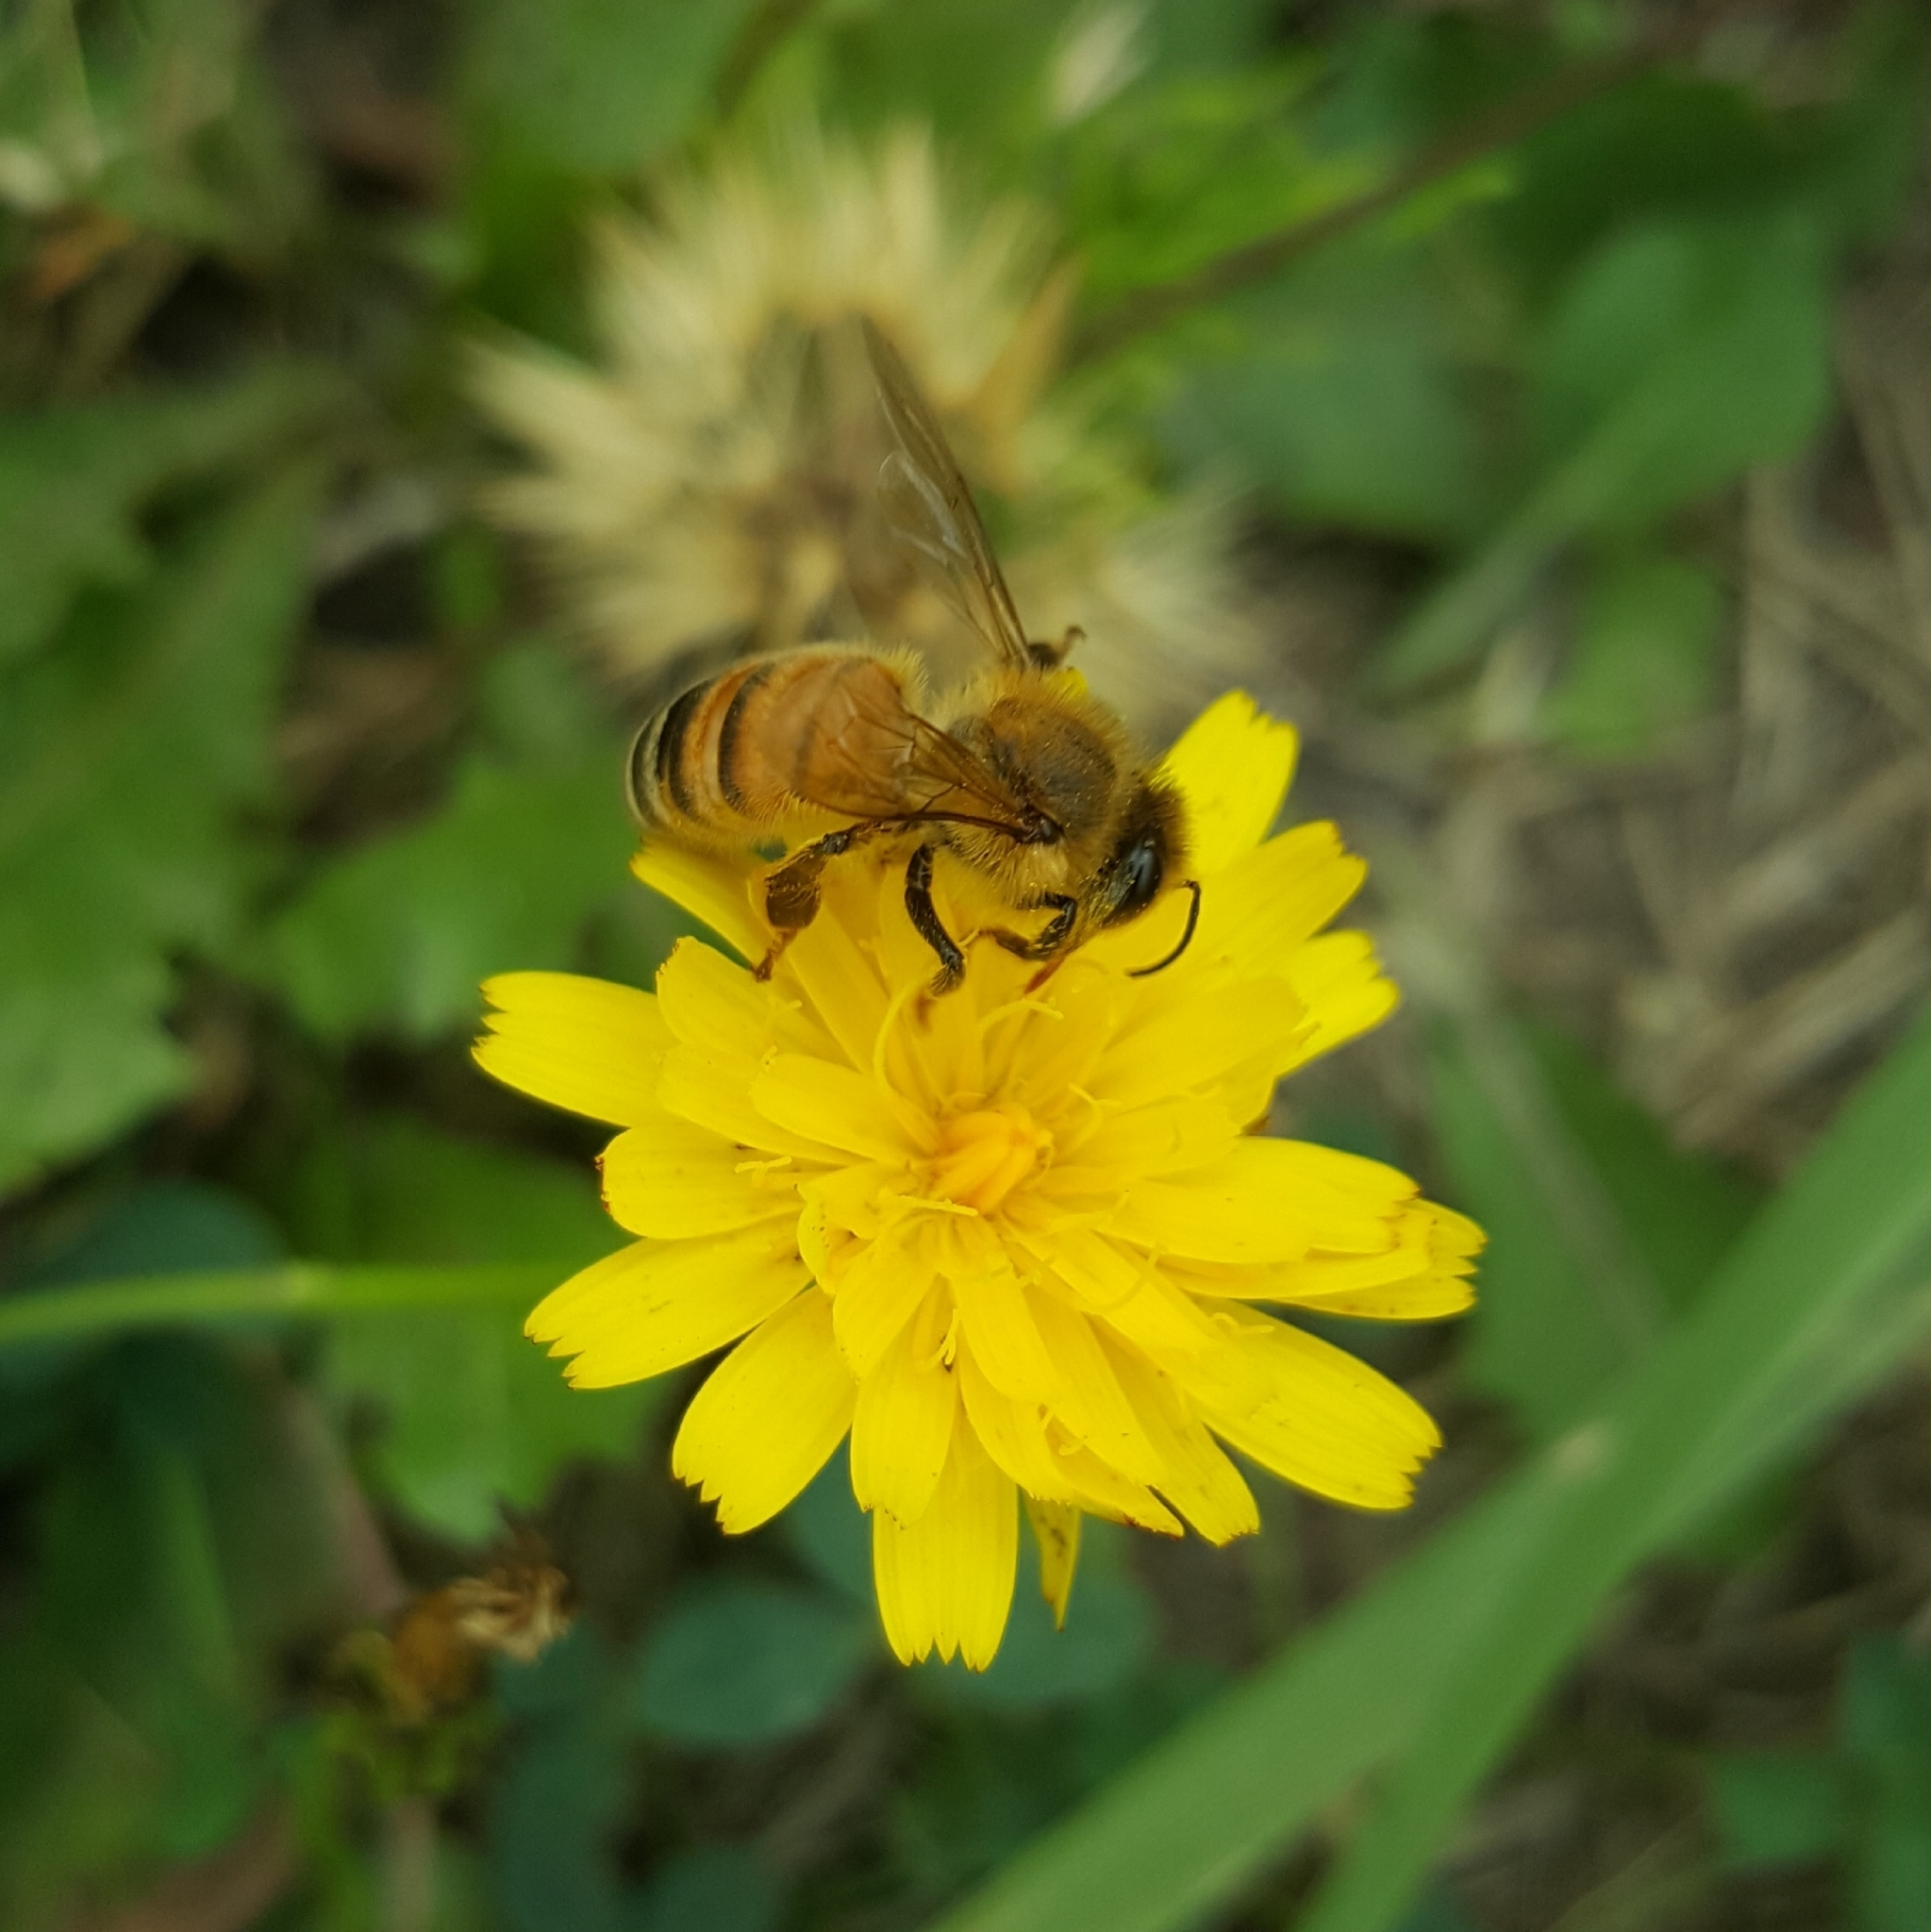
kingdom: Animalia
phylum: Arthropoda
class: Insecta
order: Hymenoptera
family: Apidae
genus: Apis
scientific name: Apis mellifera
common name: Honey bee
